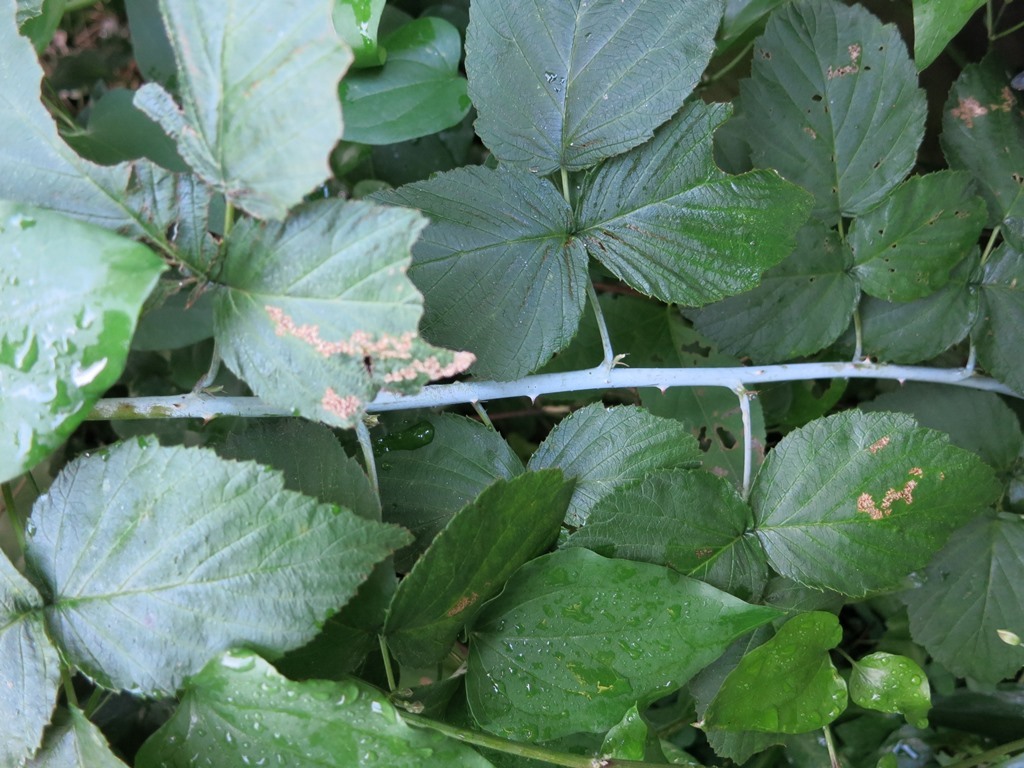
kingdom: Plantae
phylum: Tracheophyta
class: Magnoliopsida
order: Rosales
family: Rosaceae
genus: Rubus
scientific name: Rubus occidentalis
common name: Black raspberry
